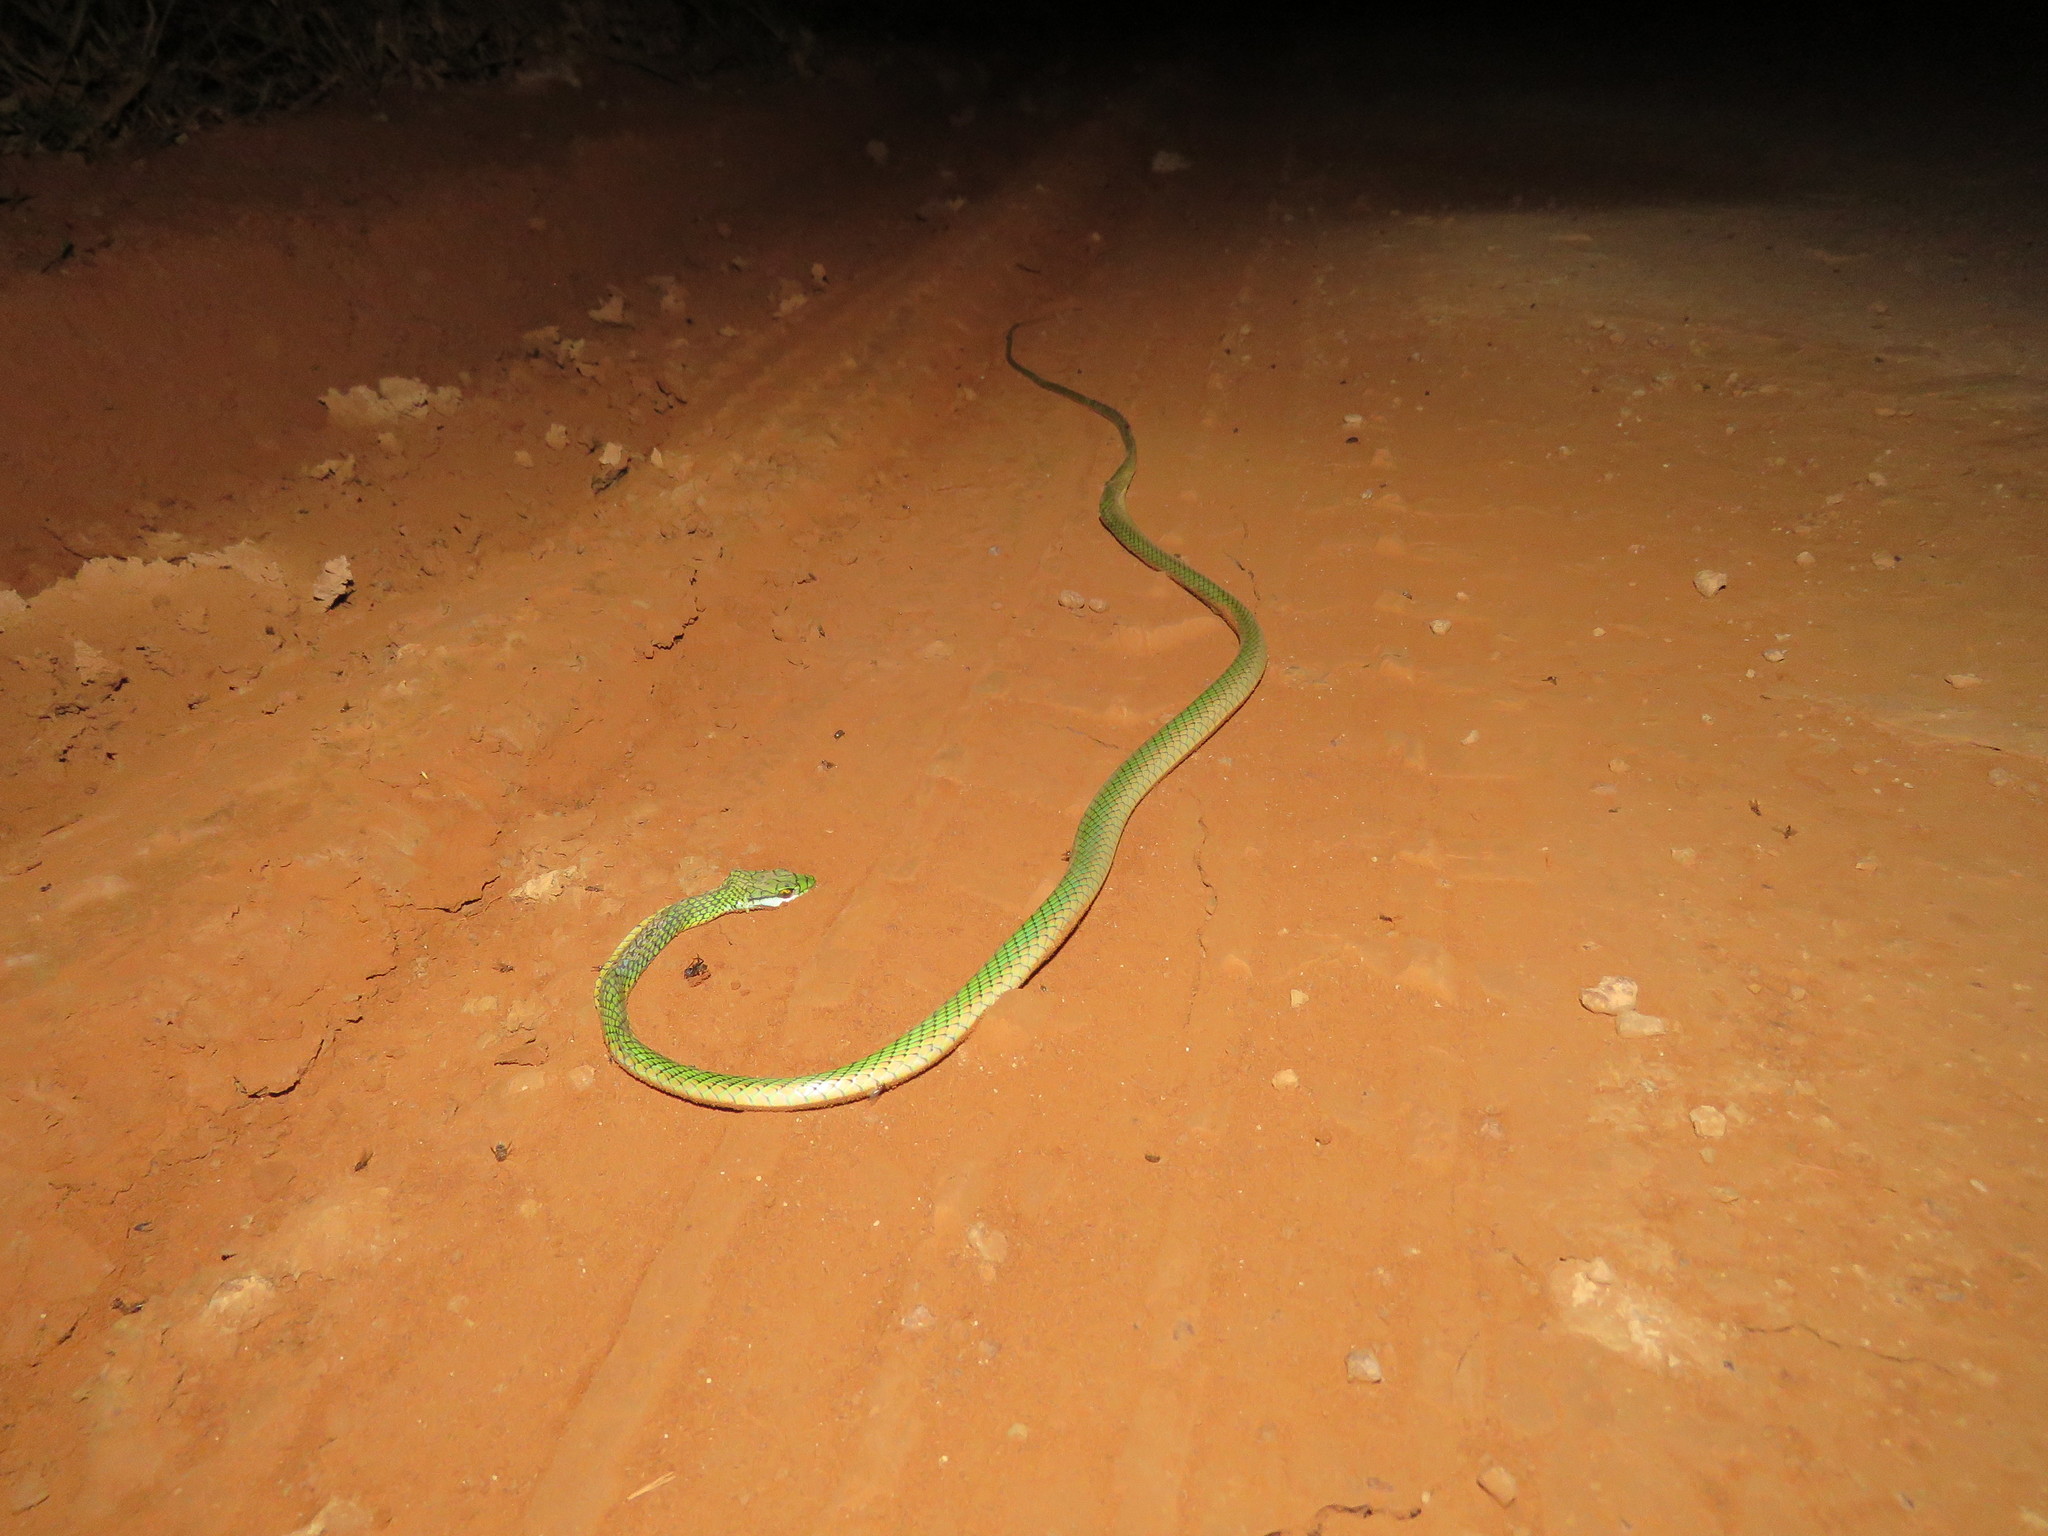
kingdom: Animalia
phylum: Chordata
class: Squamata
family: Colubridae
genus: Leptophis
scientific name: Leptophis ahaetulla
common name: Parrot snake
